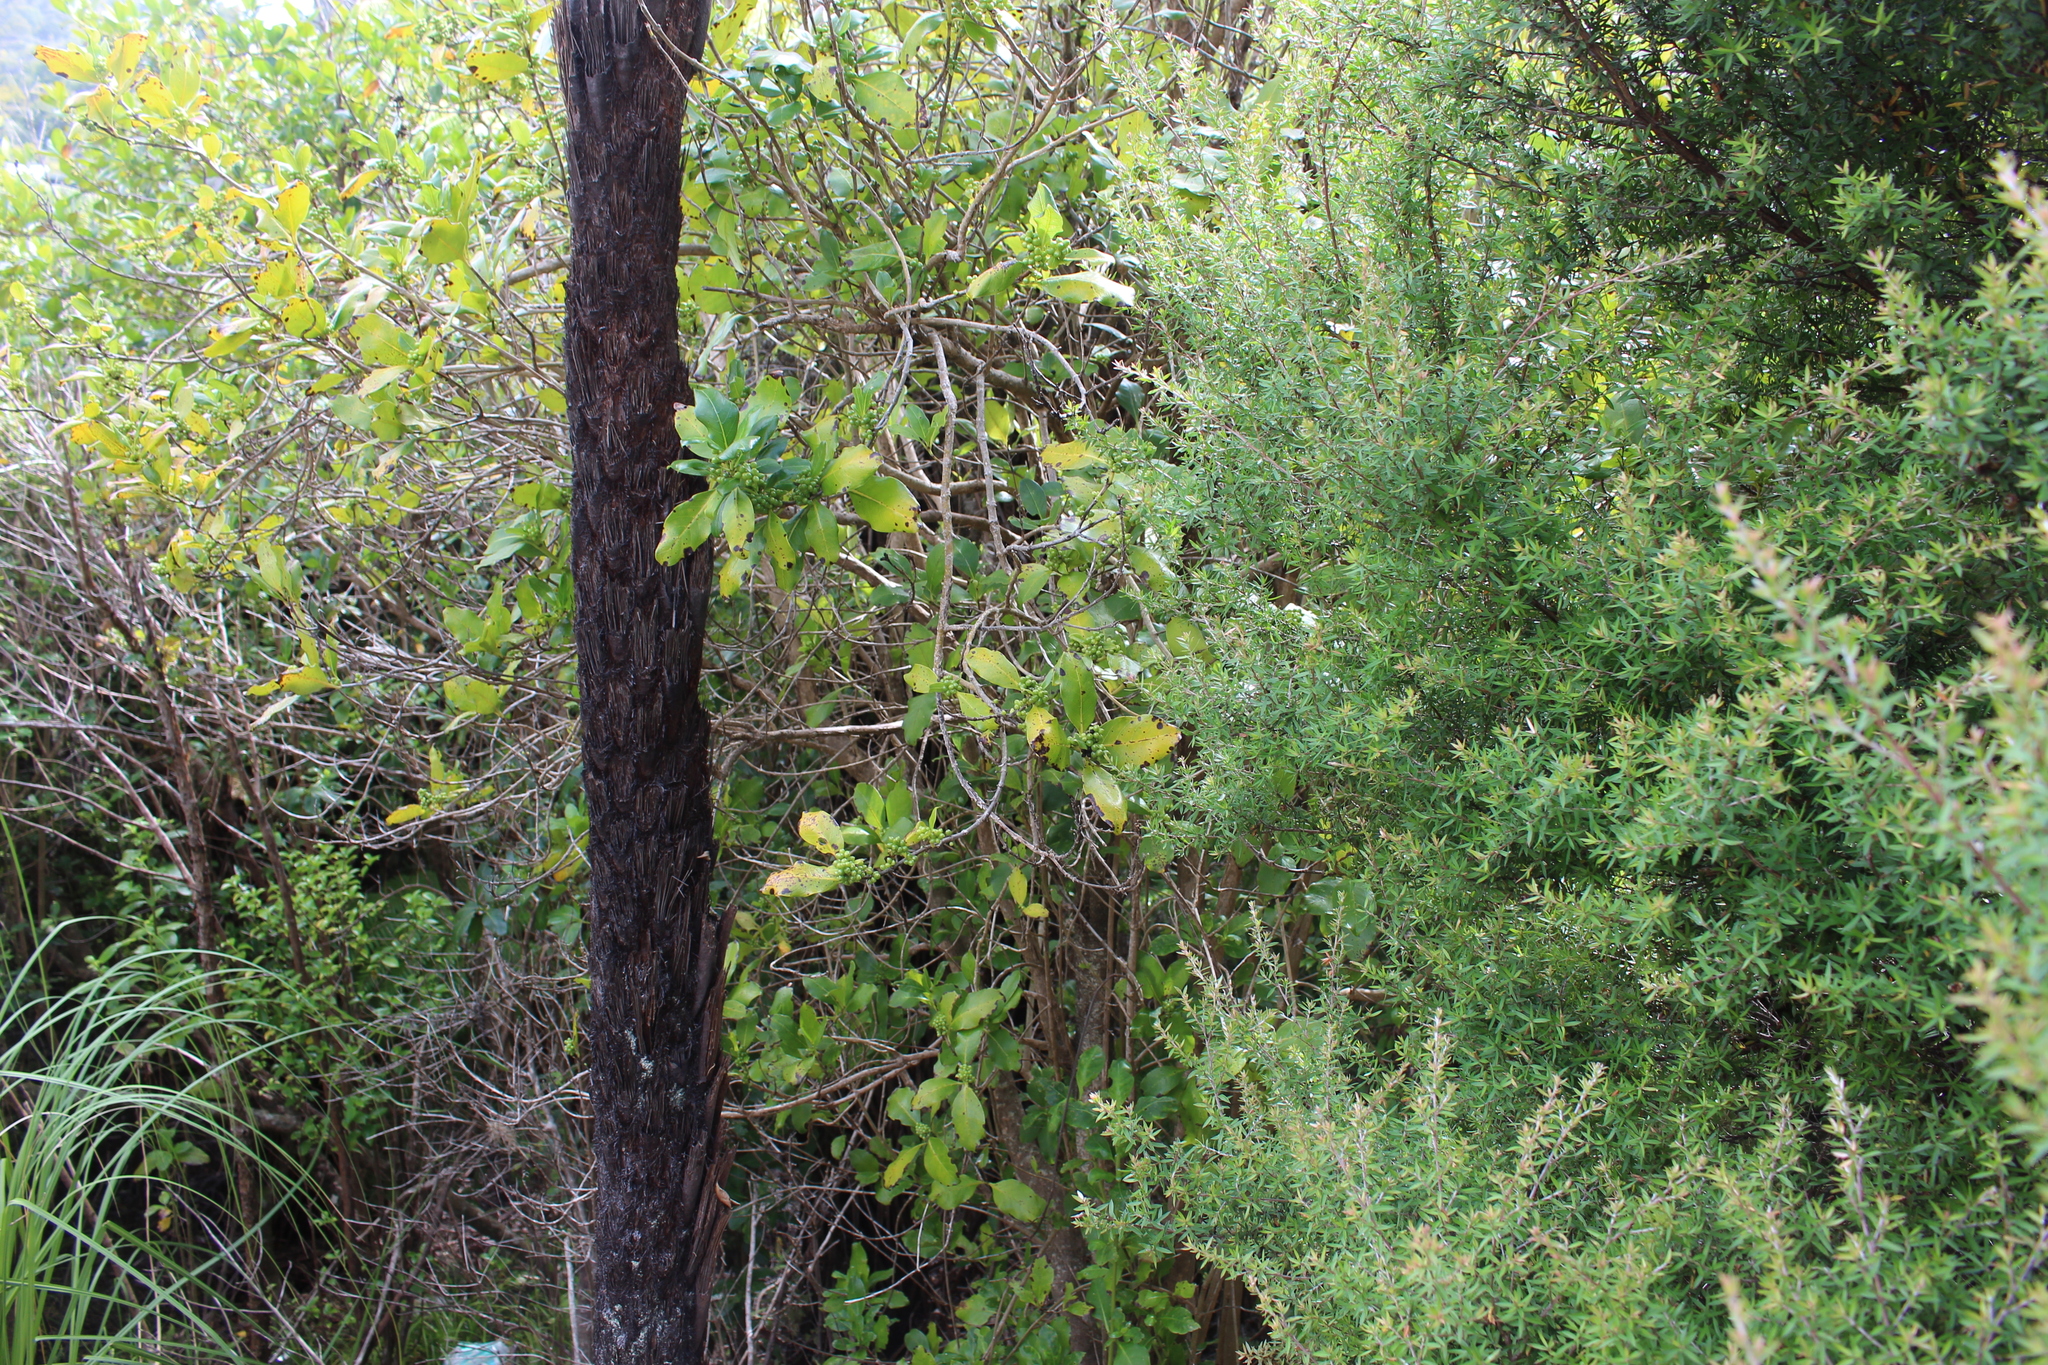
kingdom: Plantae
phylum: Tracheophyta
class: Magnoliopsida
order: Gentianales
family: Rubiaceae
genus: Coprosma
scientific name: Coprosma macrocarpa
